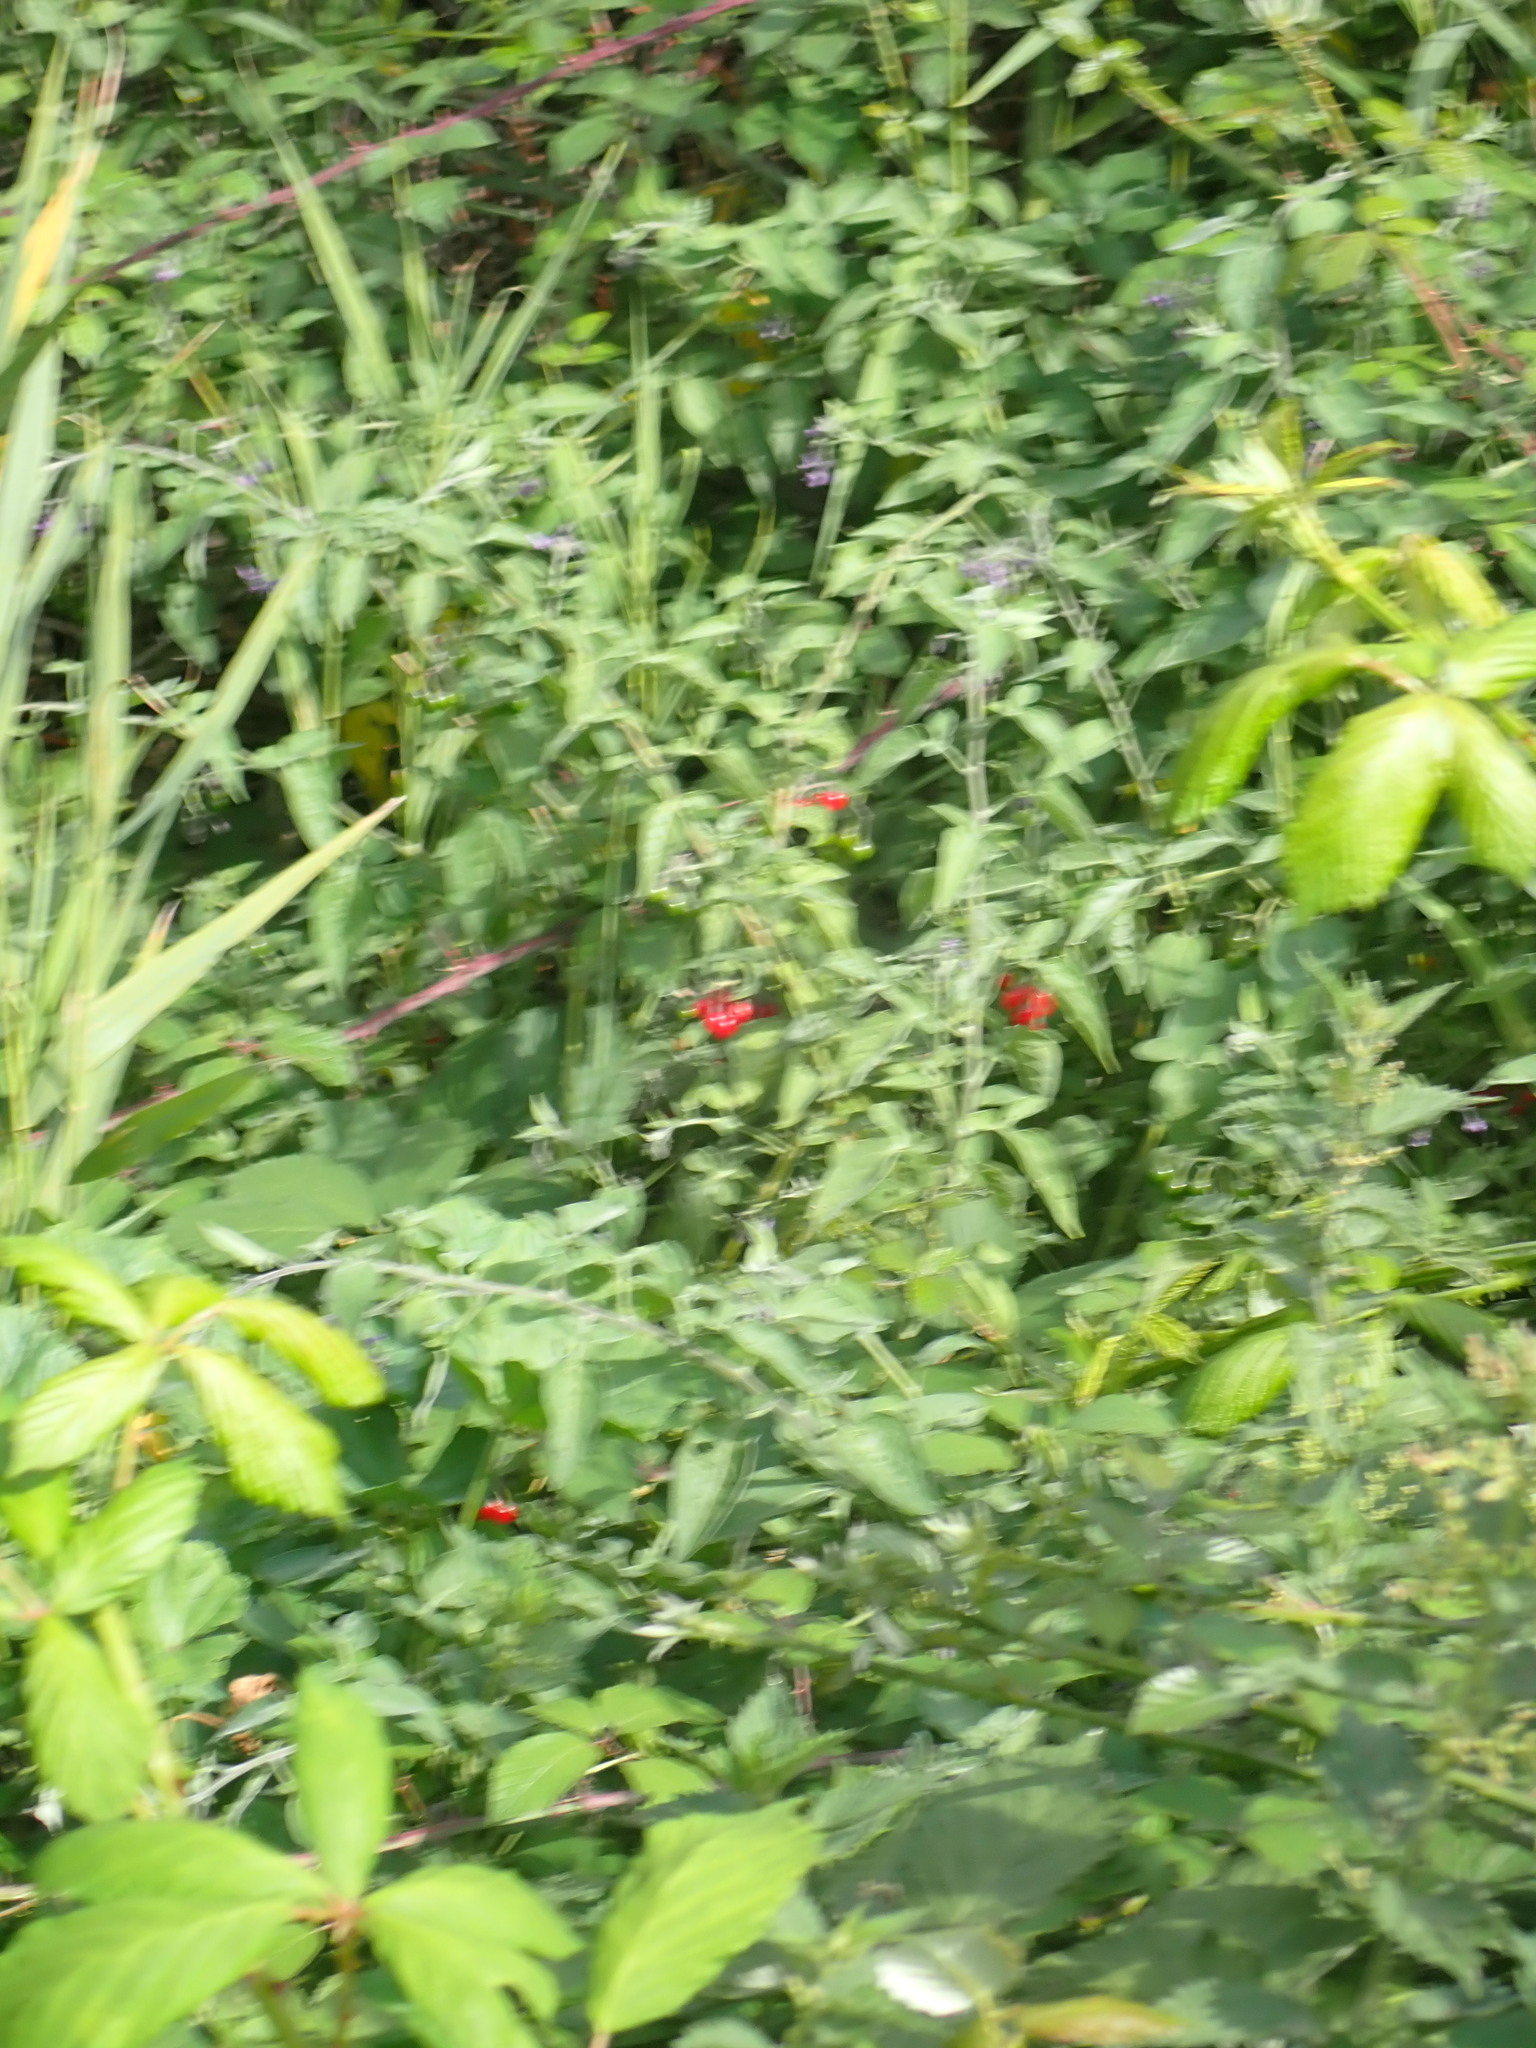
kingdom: Plantae
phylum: Tracheophyta
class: Magnoliopsida
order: Solanales
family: Solanaceae
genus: Solanum
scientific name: Solanum dulcamara
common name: Climbing nightshade
